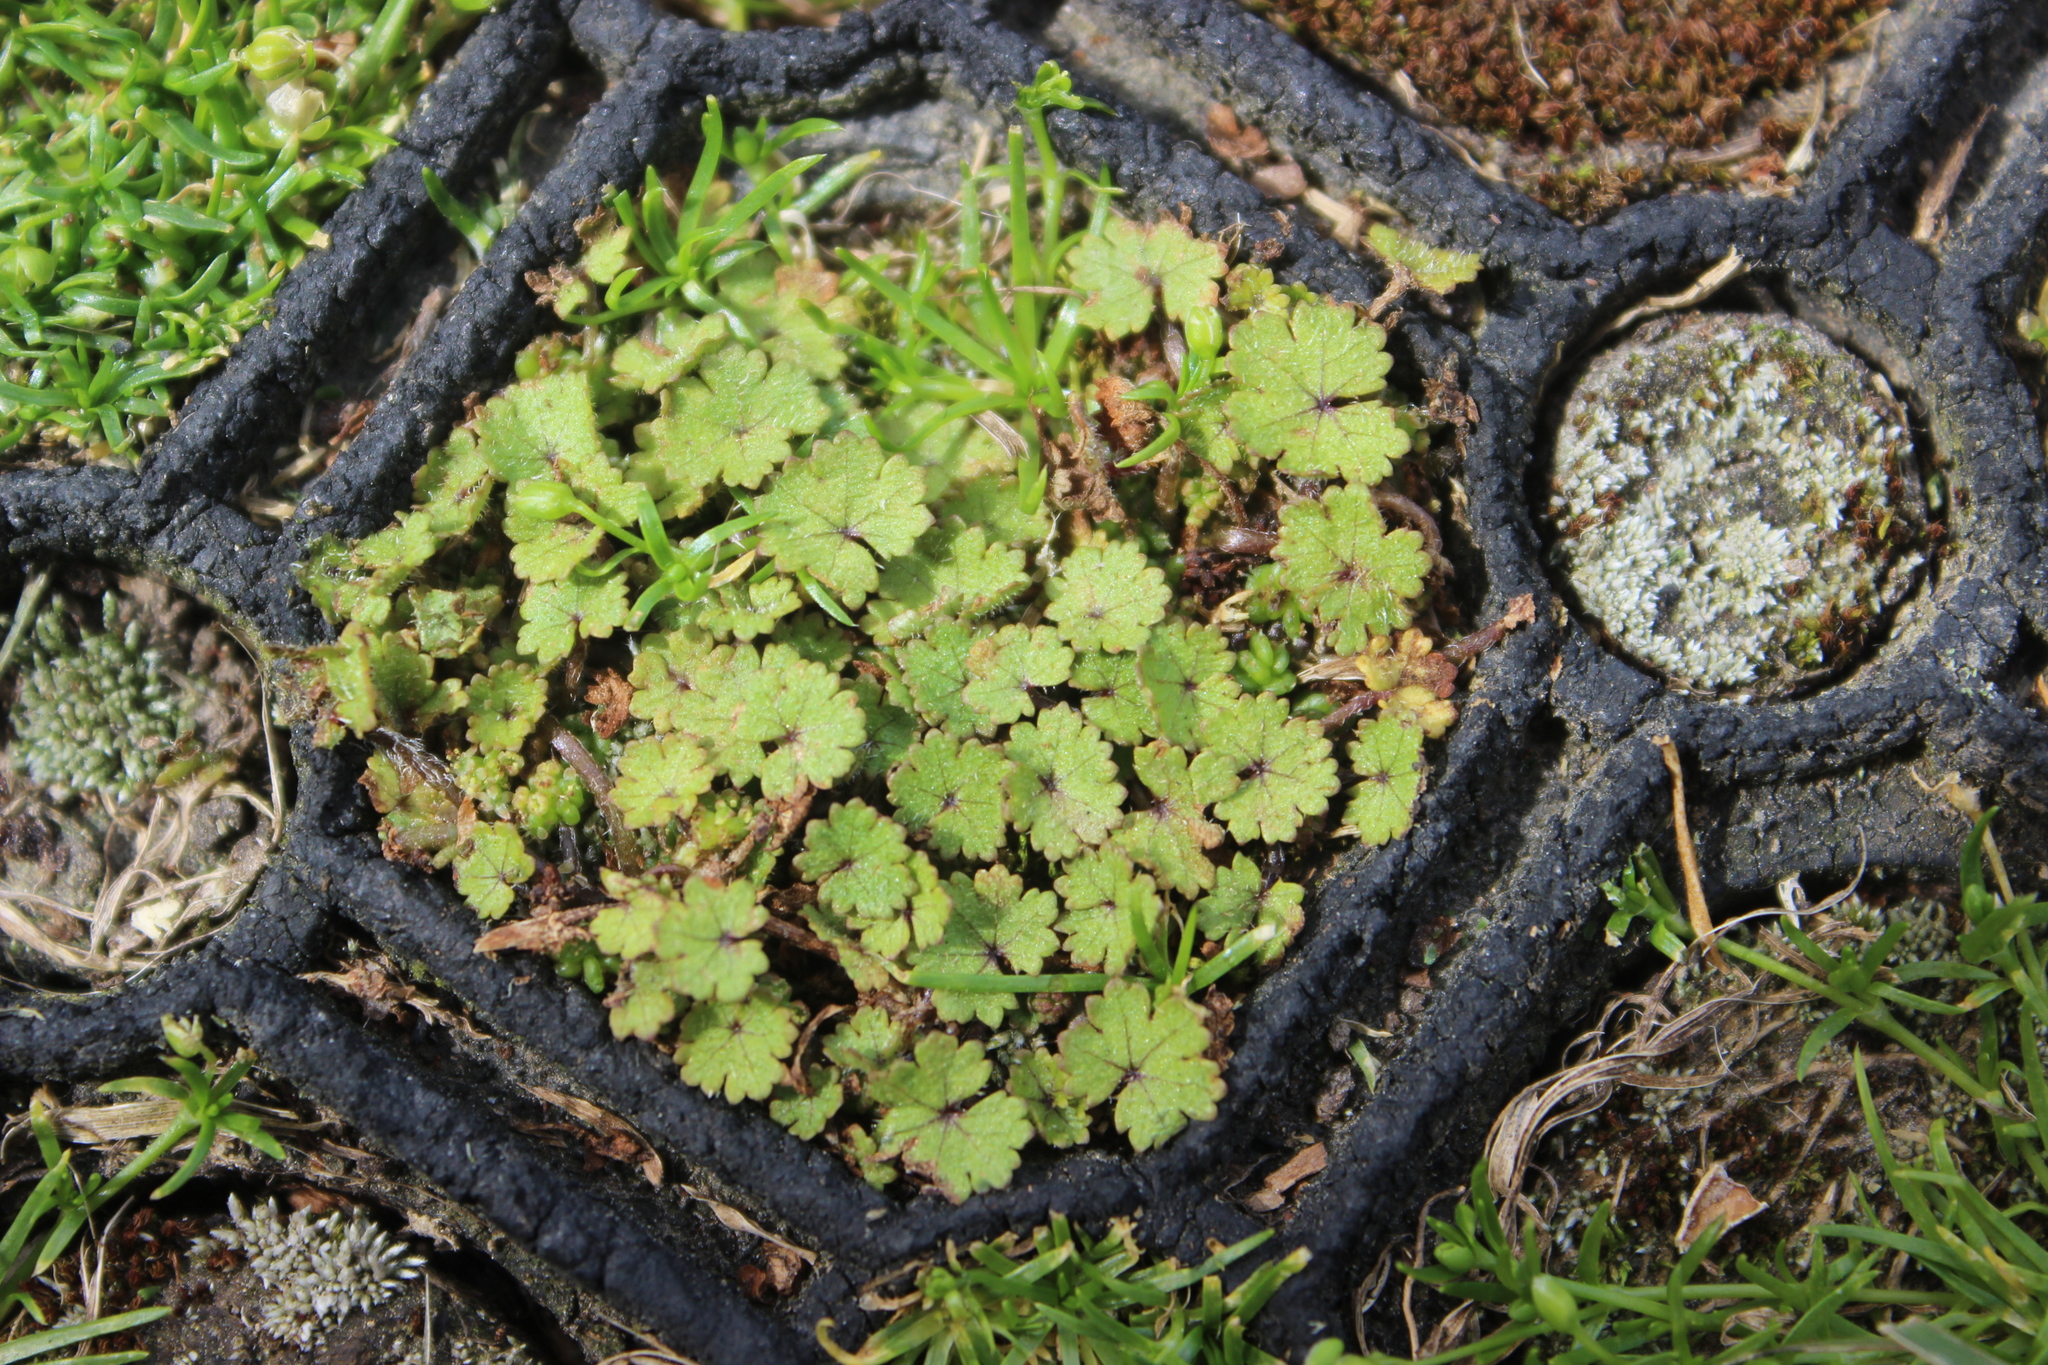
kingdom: Plantae
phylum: Tracheophyta
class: Magnoliopsida
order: Apiales
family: Araliaceae
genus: Hydrocotyle
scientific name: Hydrocotyle moschata
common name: Hairy pennywort
